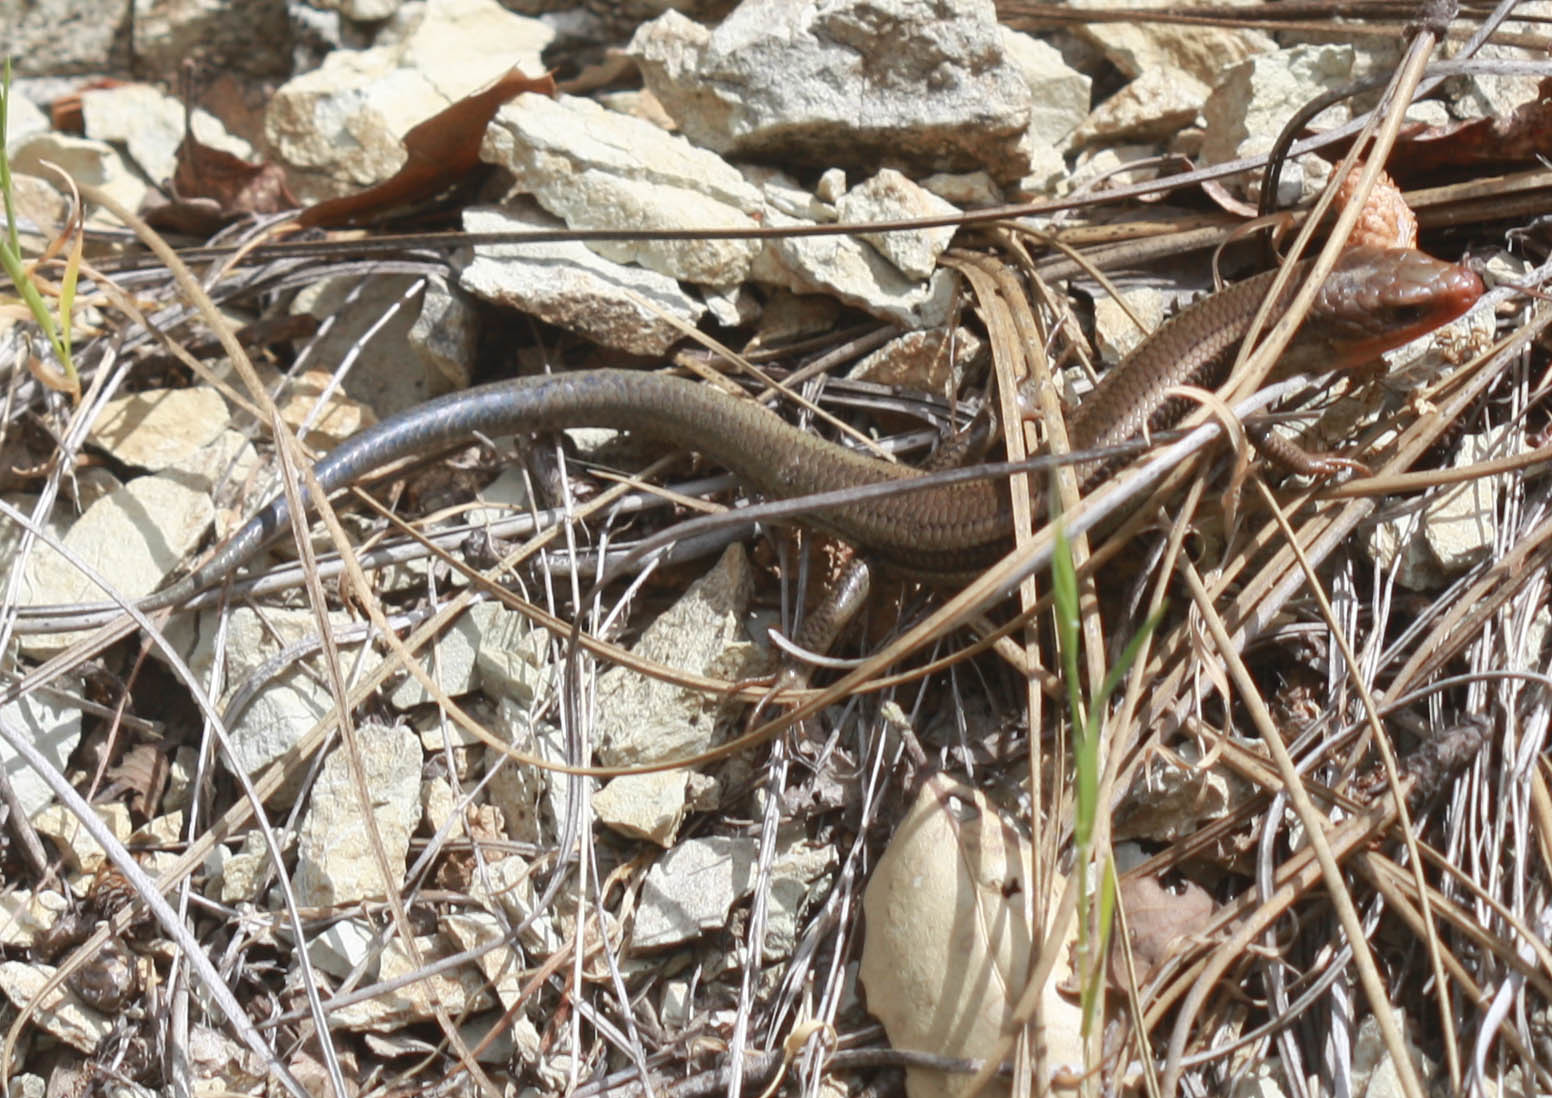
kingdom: Animalia
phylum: Chordata
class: Squamata
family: Scincidae
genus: Plestiodon
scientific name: Plestiodon skiltonianus
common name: Coronado island skink [interparietalis]
